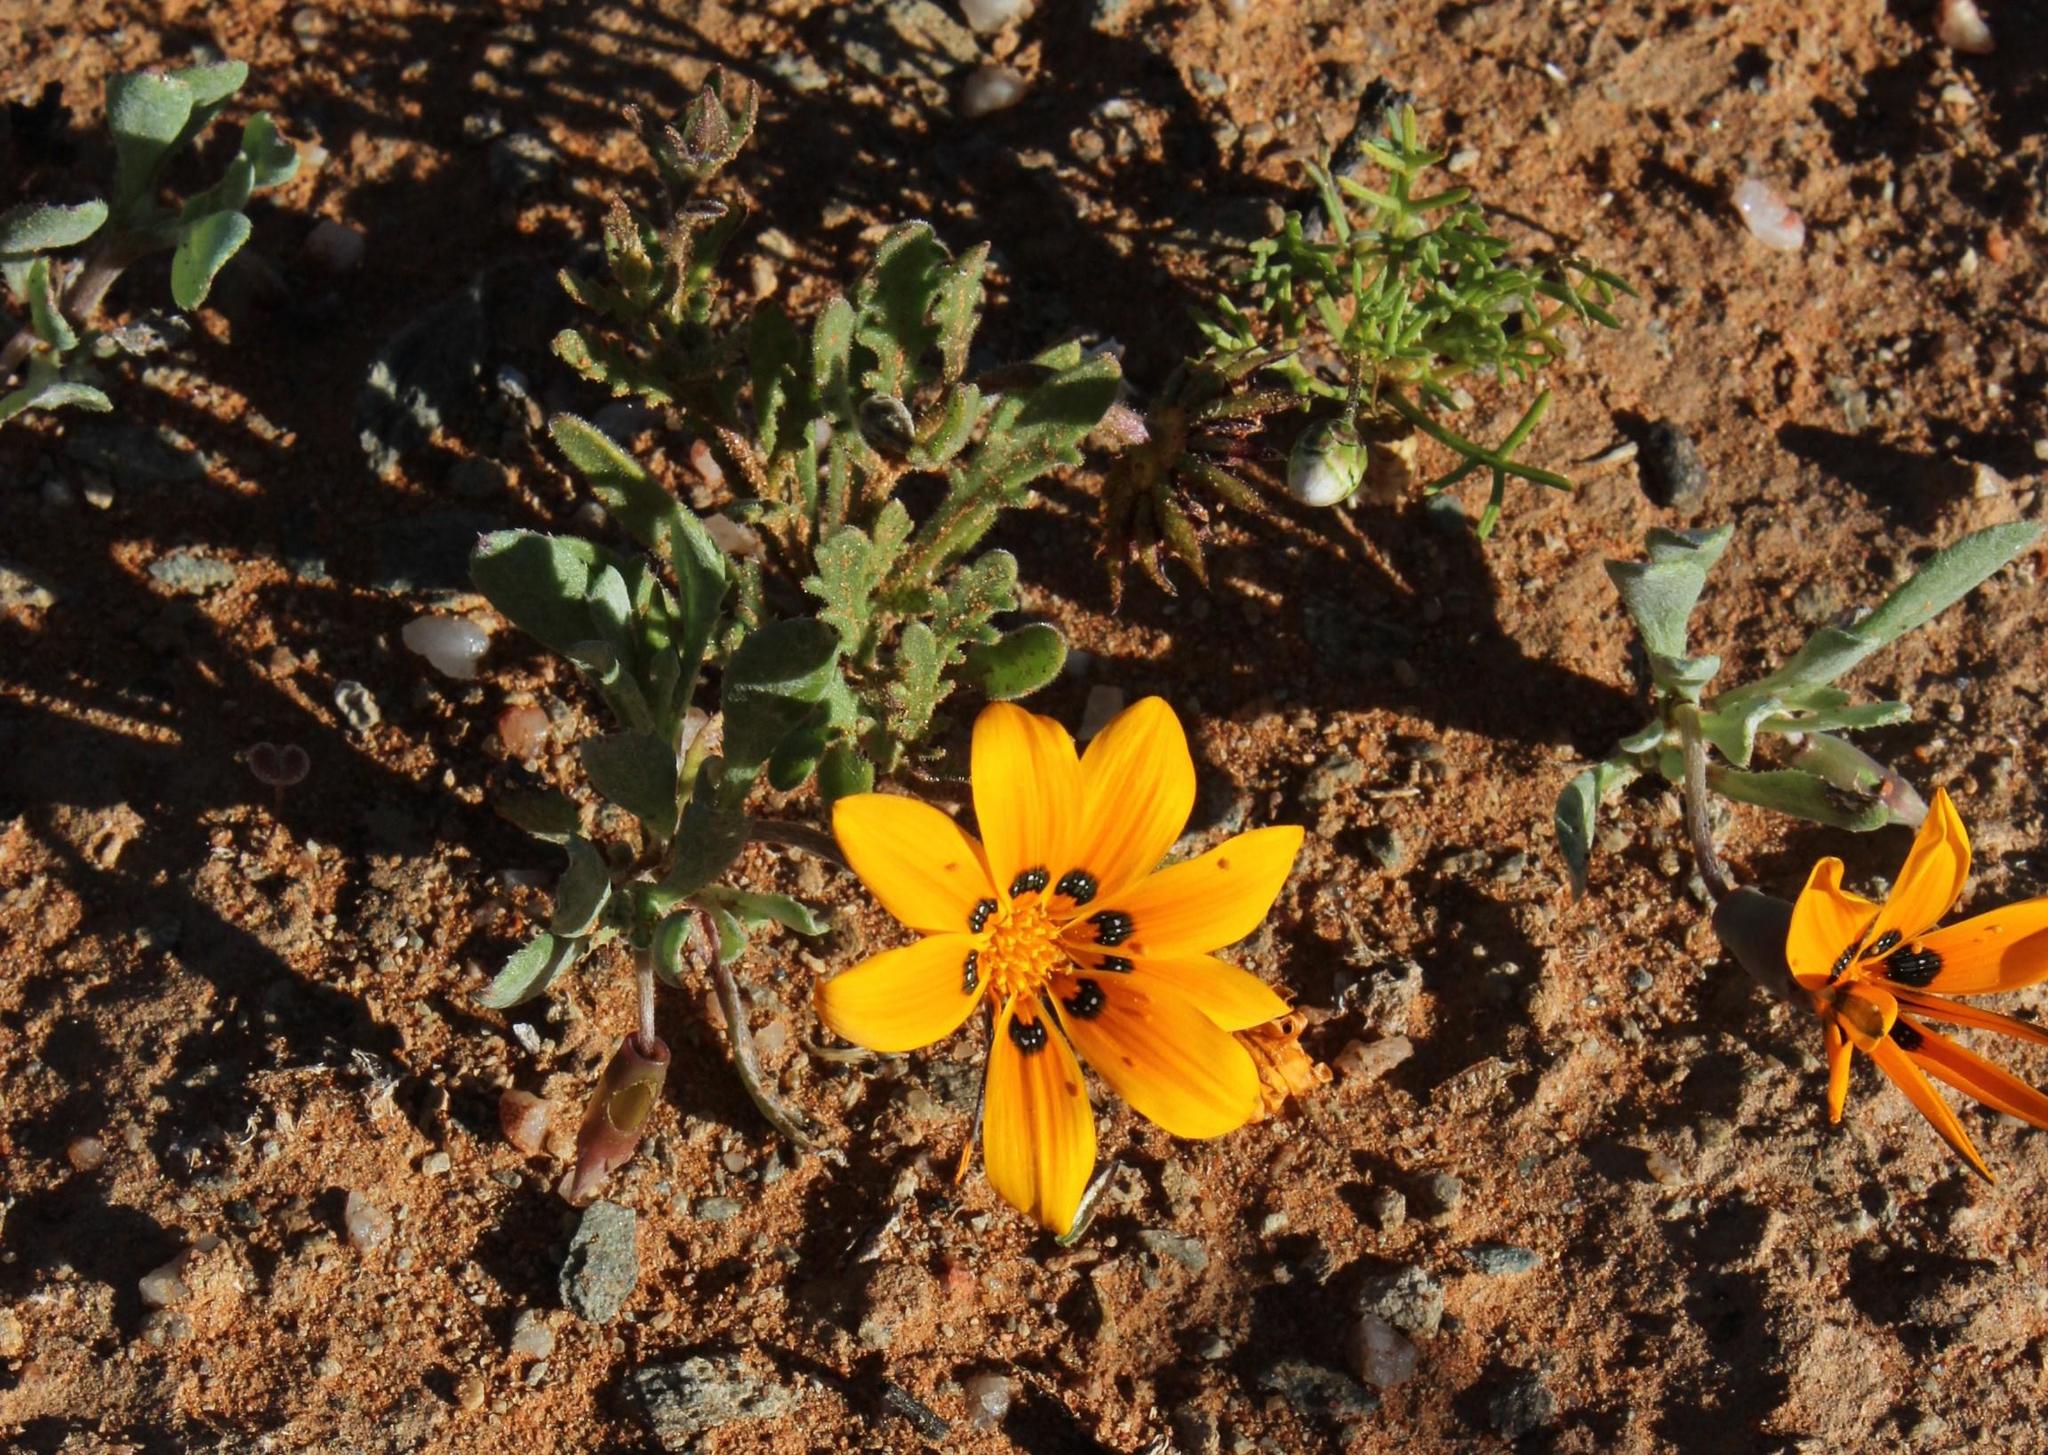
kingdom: Plantae
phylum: Tracheophyta
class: Magnoliopsida
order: Asterales
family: Asteraceae
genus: Gazania
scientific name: Gazania lichtensteinii
